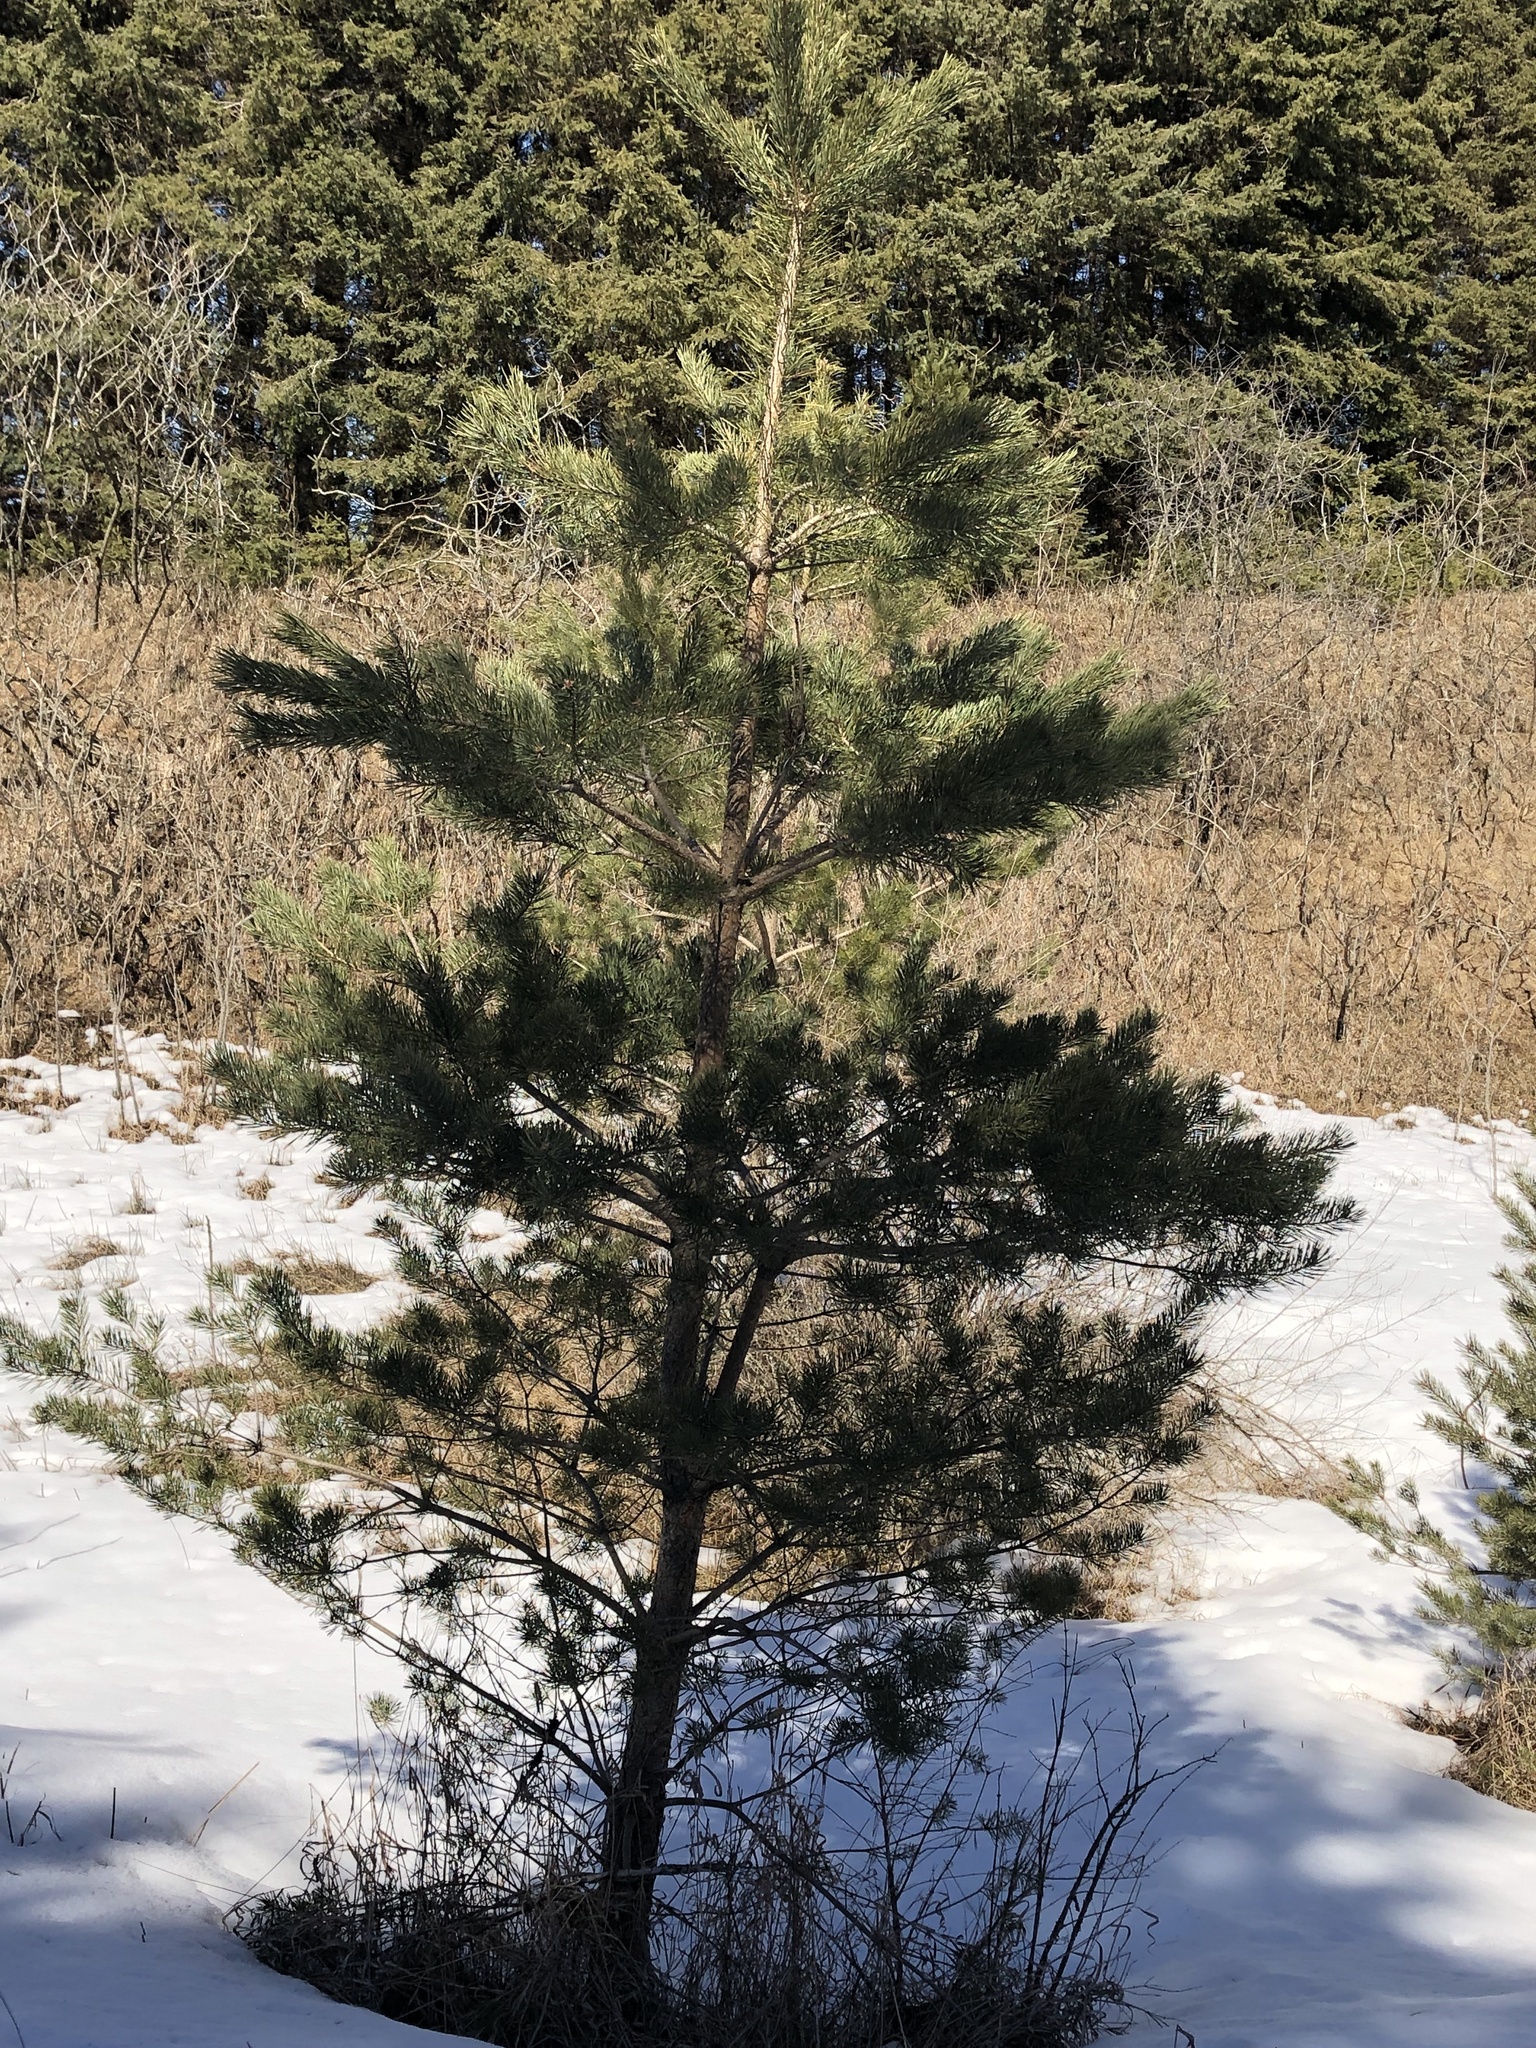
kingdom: Plantae
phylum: Tracheophyta
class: Pinopsida
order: Pinales
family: Pinaceae
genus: Pinus
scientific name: Pinus sylvestris
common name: Scots pine
